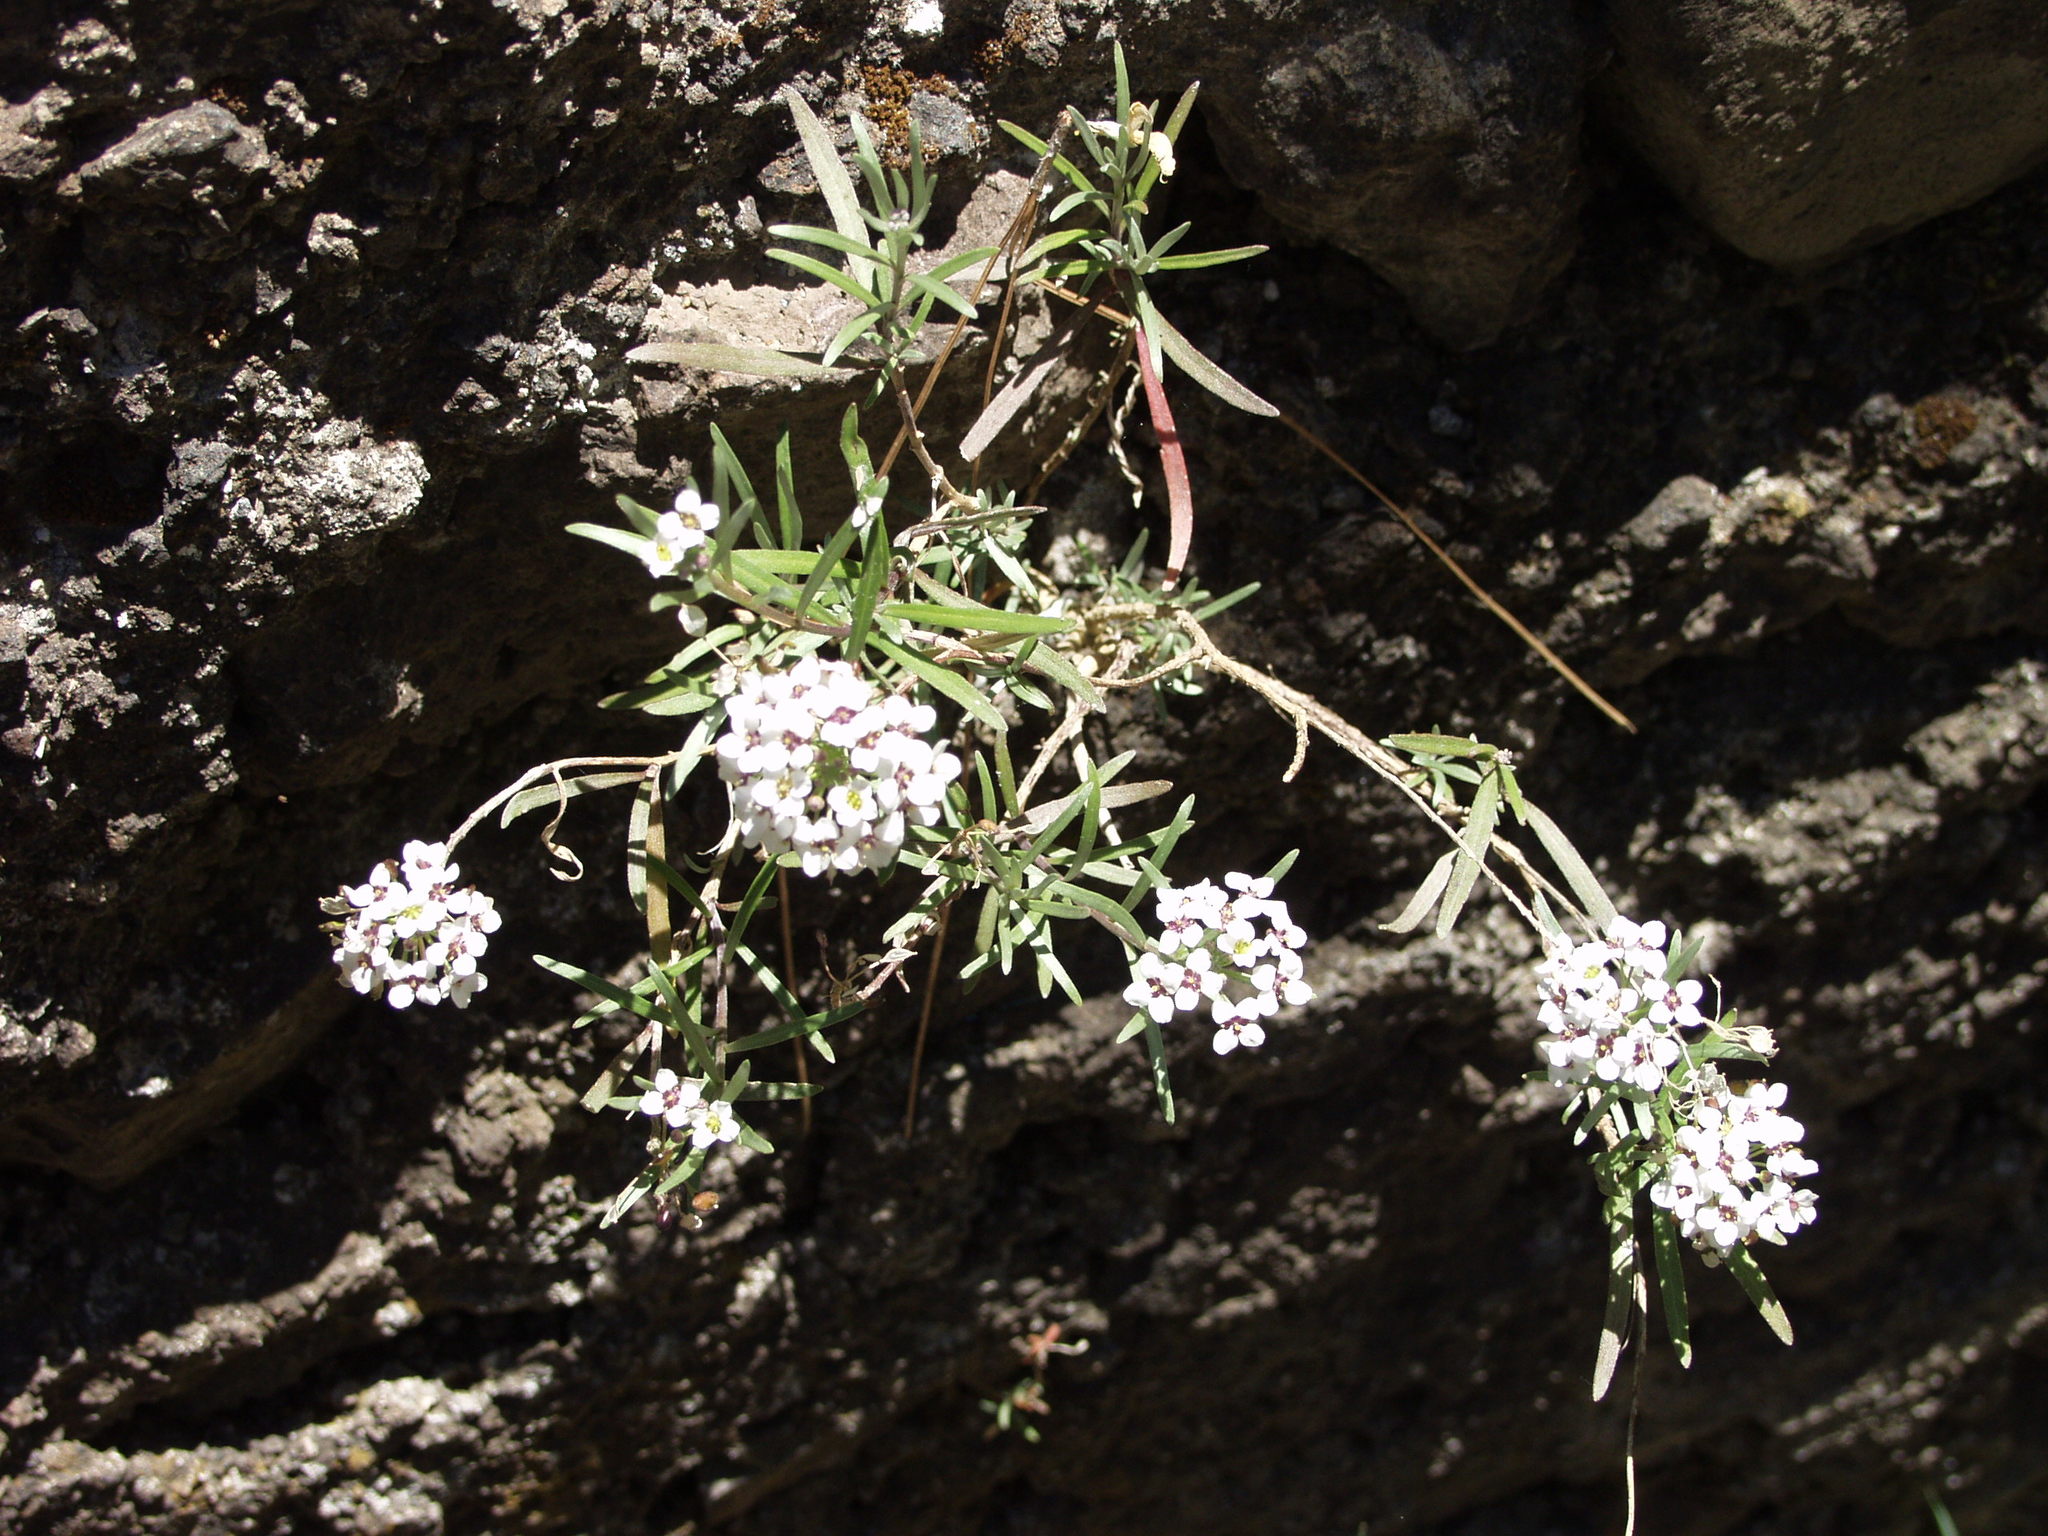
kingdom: Plantae
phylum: Tracheophyta
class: Magnoliopsida
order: Brassicales
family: Brassicaceae
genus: Lobularia
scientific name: Lobularia canariensis
